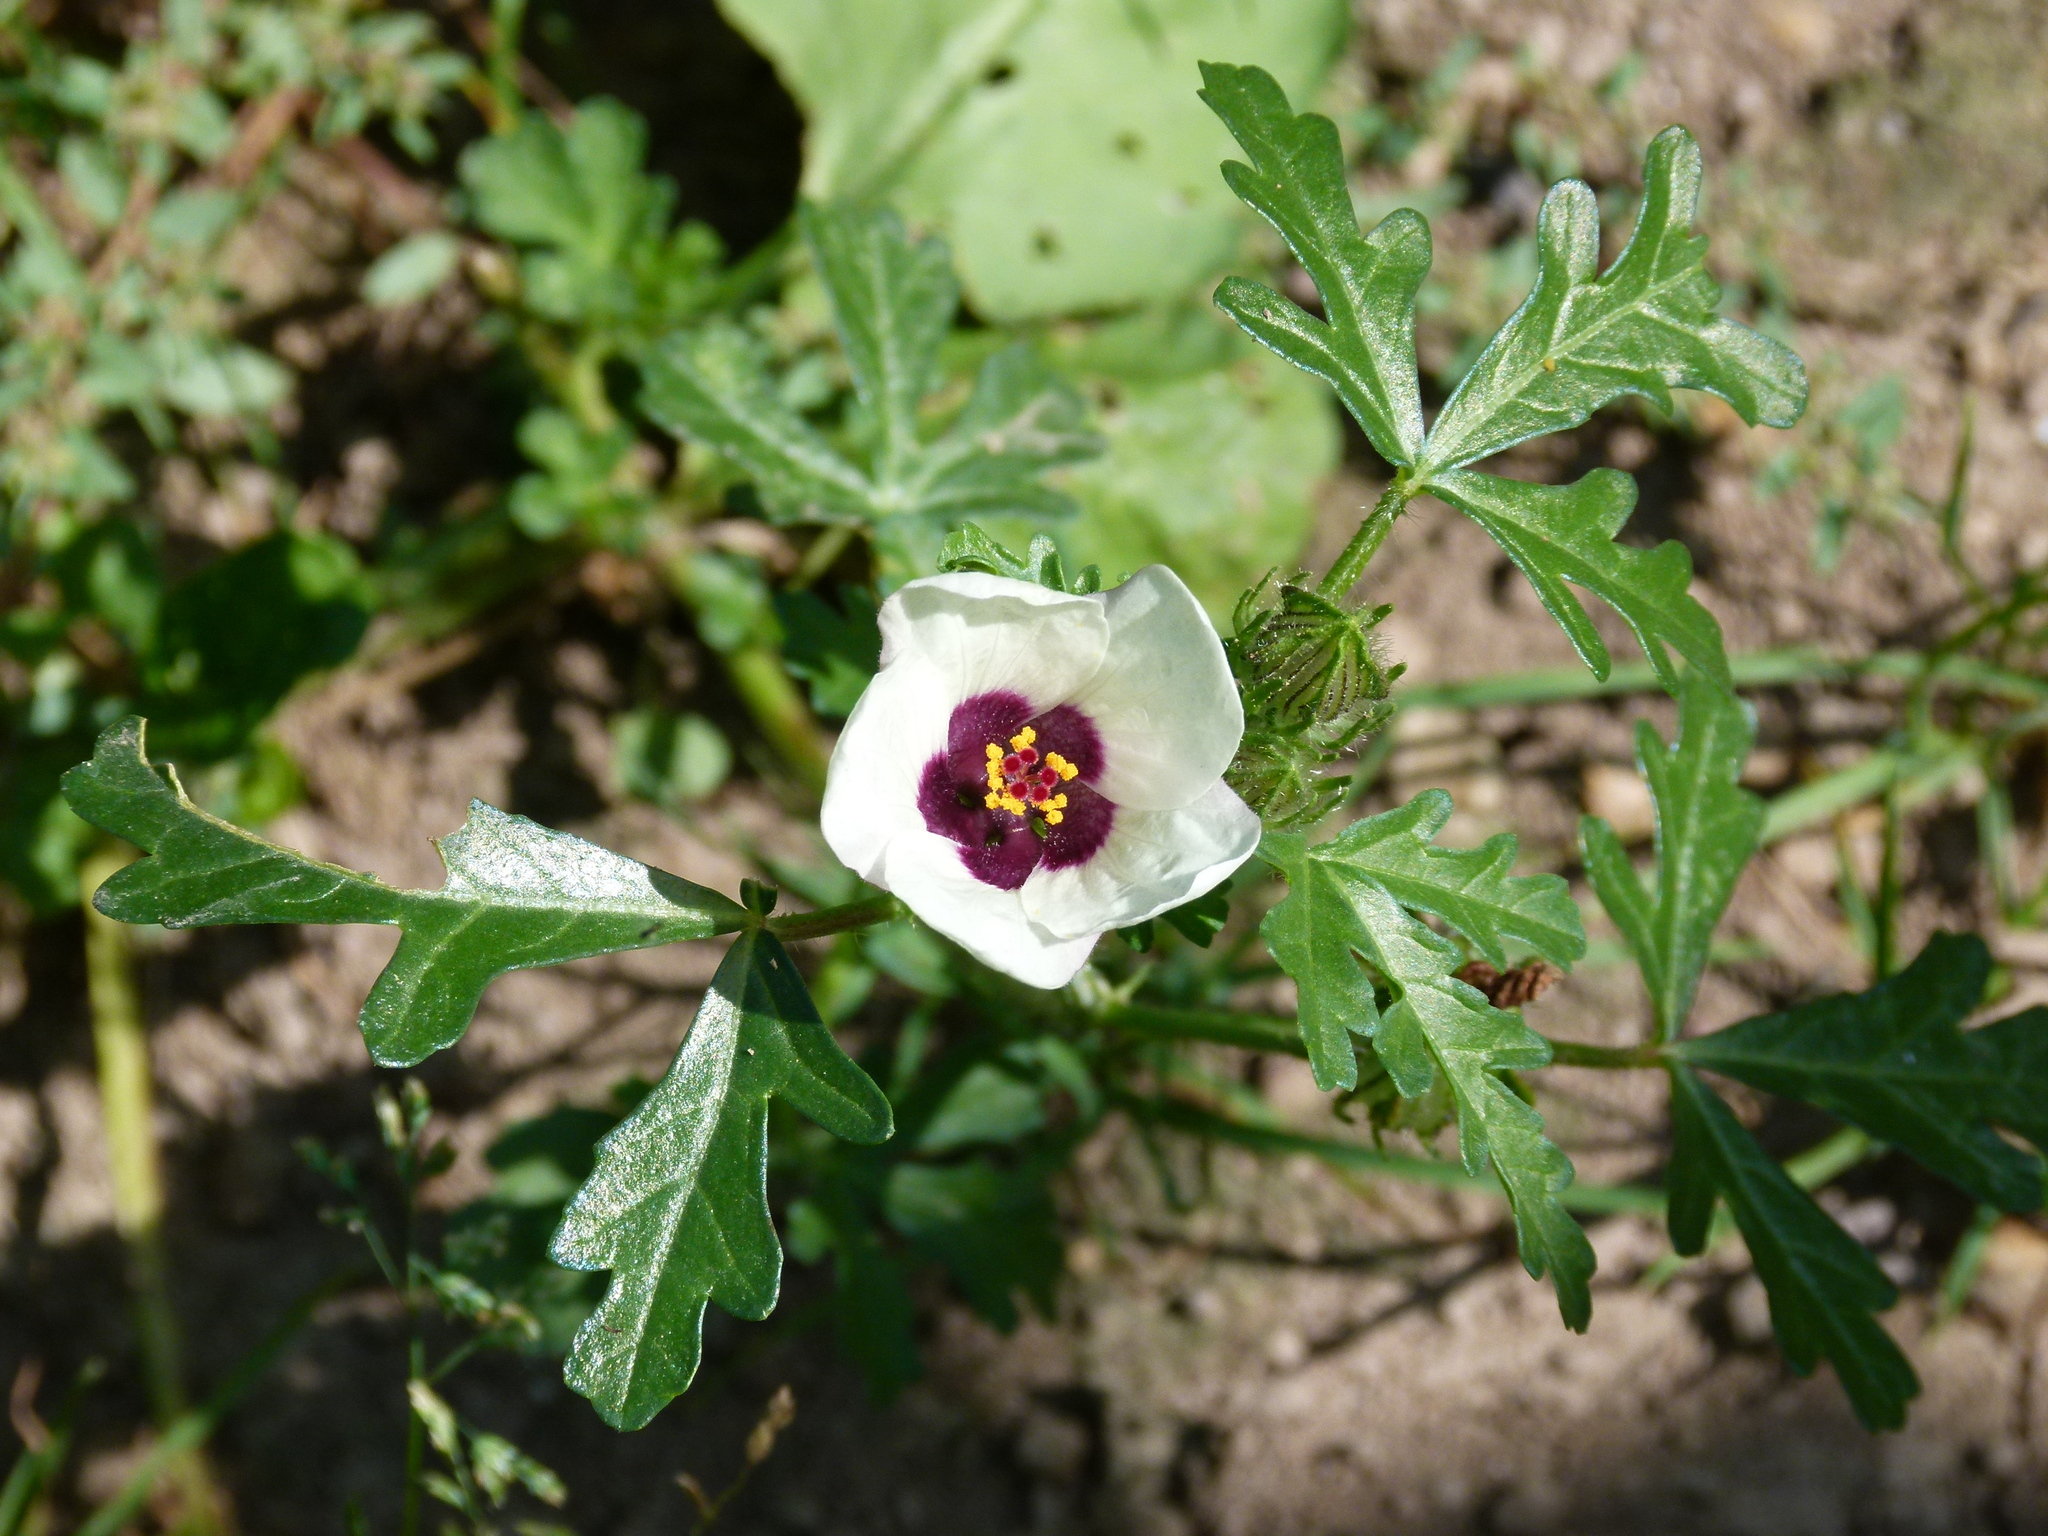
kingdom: Plantae
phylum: Tracheophyta
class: Magnoliopsida
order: Malvales
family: Malvaceae
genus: Hibiscus
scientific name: Hibiscus trionum
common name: Bladder ketmia
